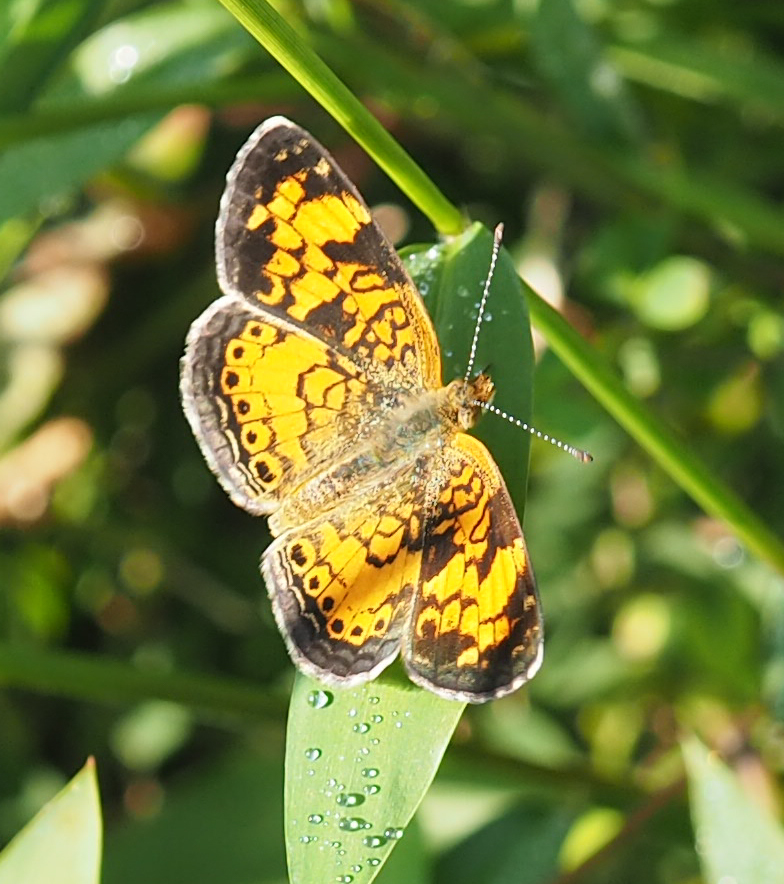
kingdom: Animalia
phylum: Arthropoda
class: Insecta
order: Lepidoptera
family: Nymphalidae
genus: Phyciodes
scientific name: Phyciodes tharos
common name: Pearl crescent
